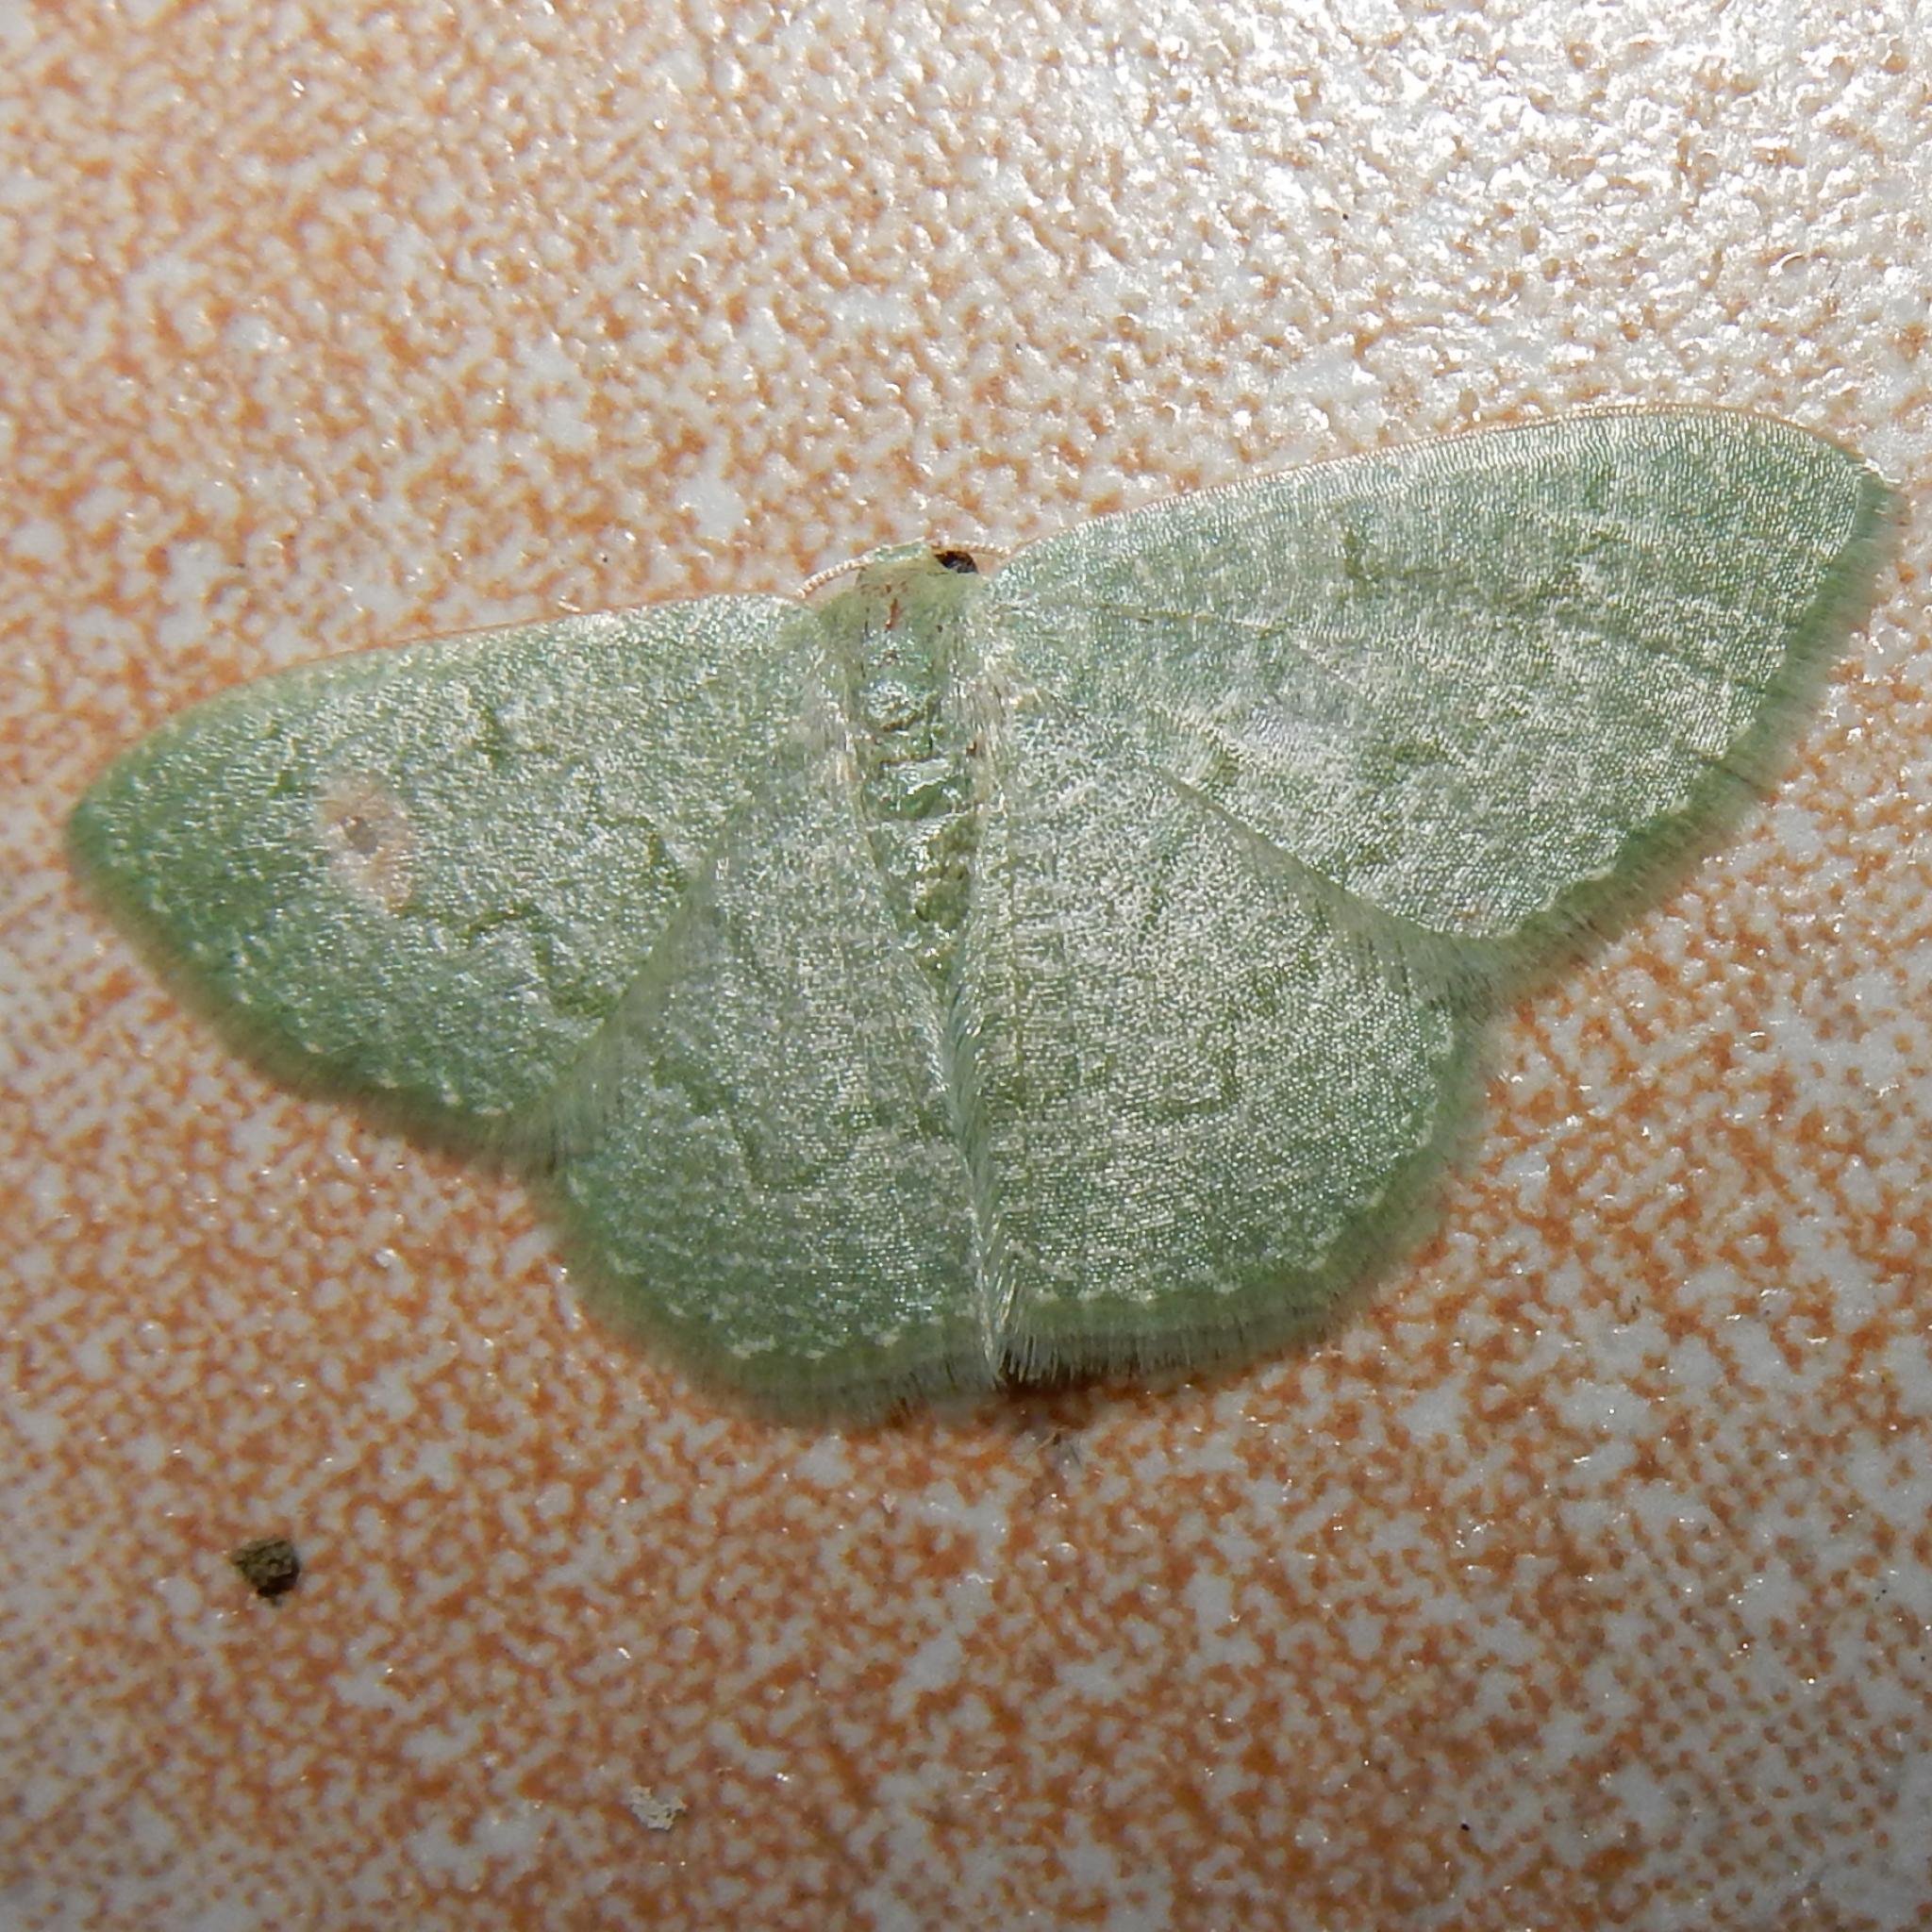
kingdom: Animalia
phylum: Arthropoda
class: Insecta
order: Lepidoptera
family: Geometridae
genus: Chlorissa
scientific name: Chlorissa albistrigulata
